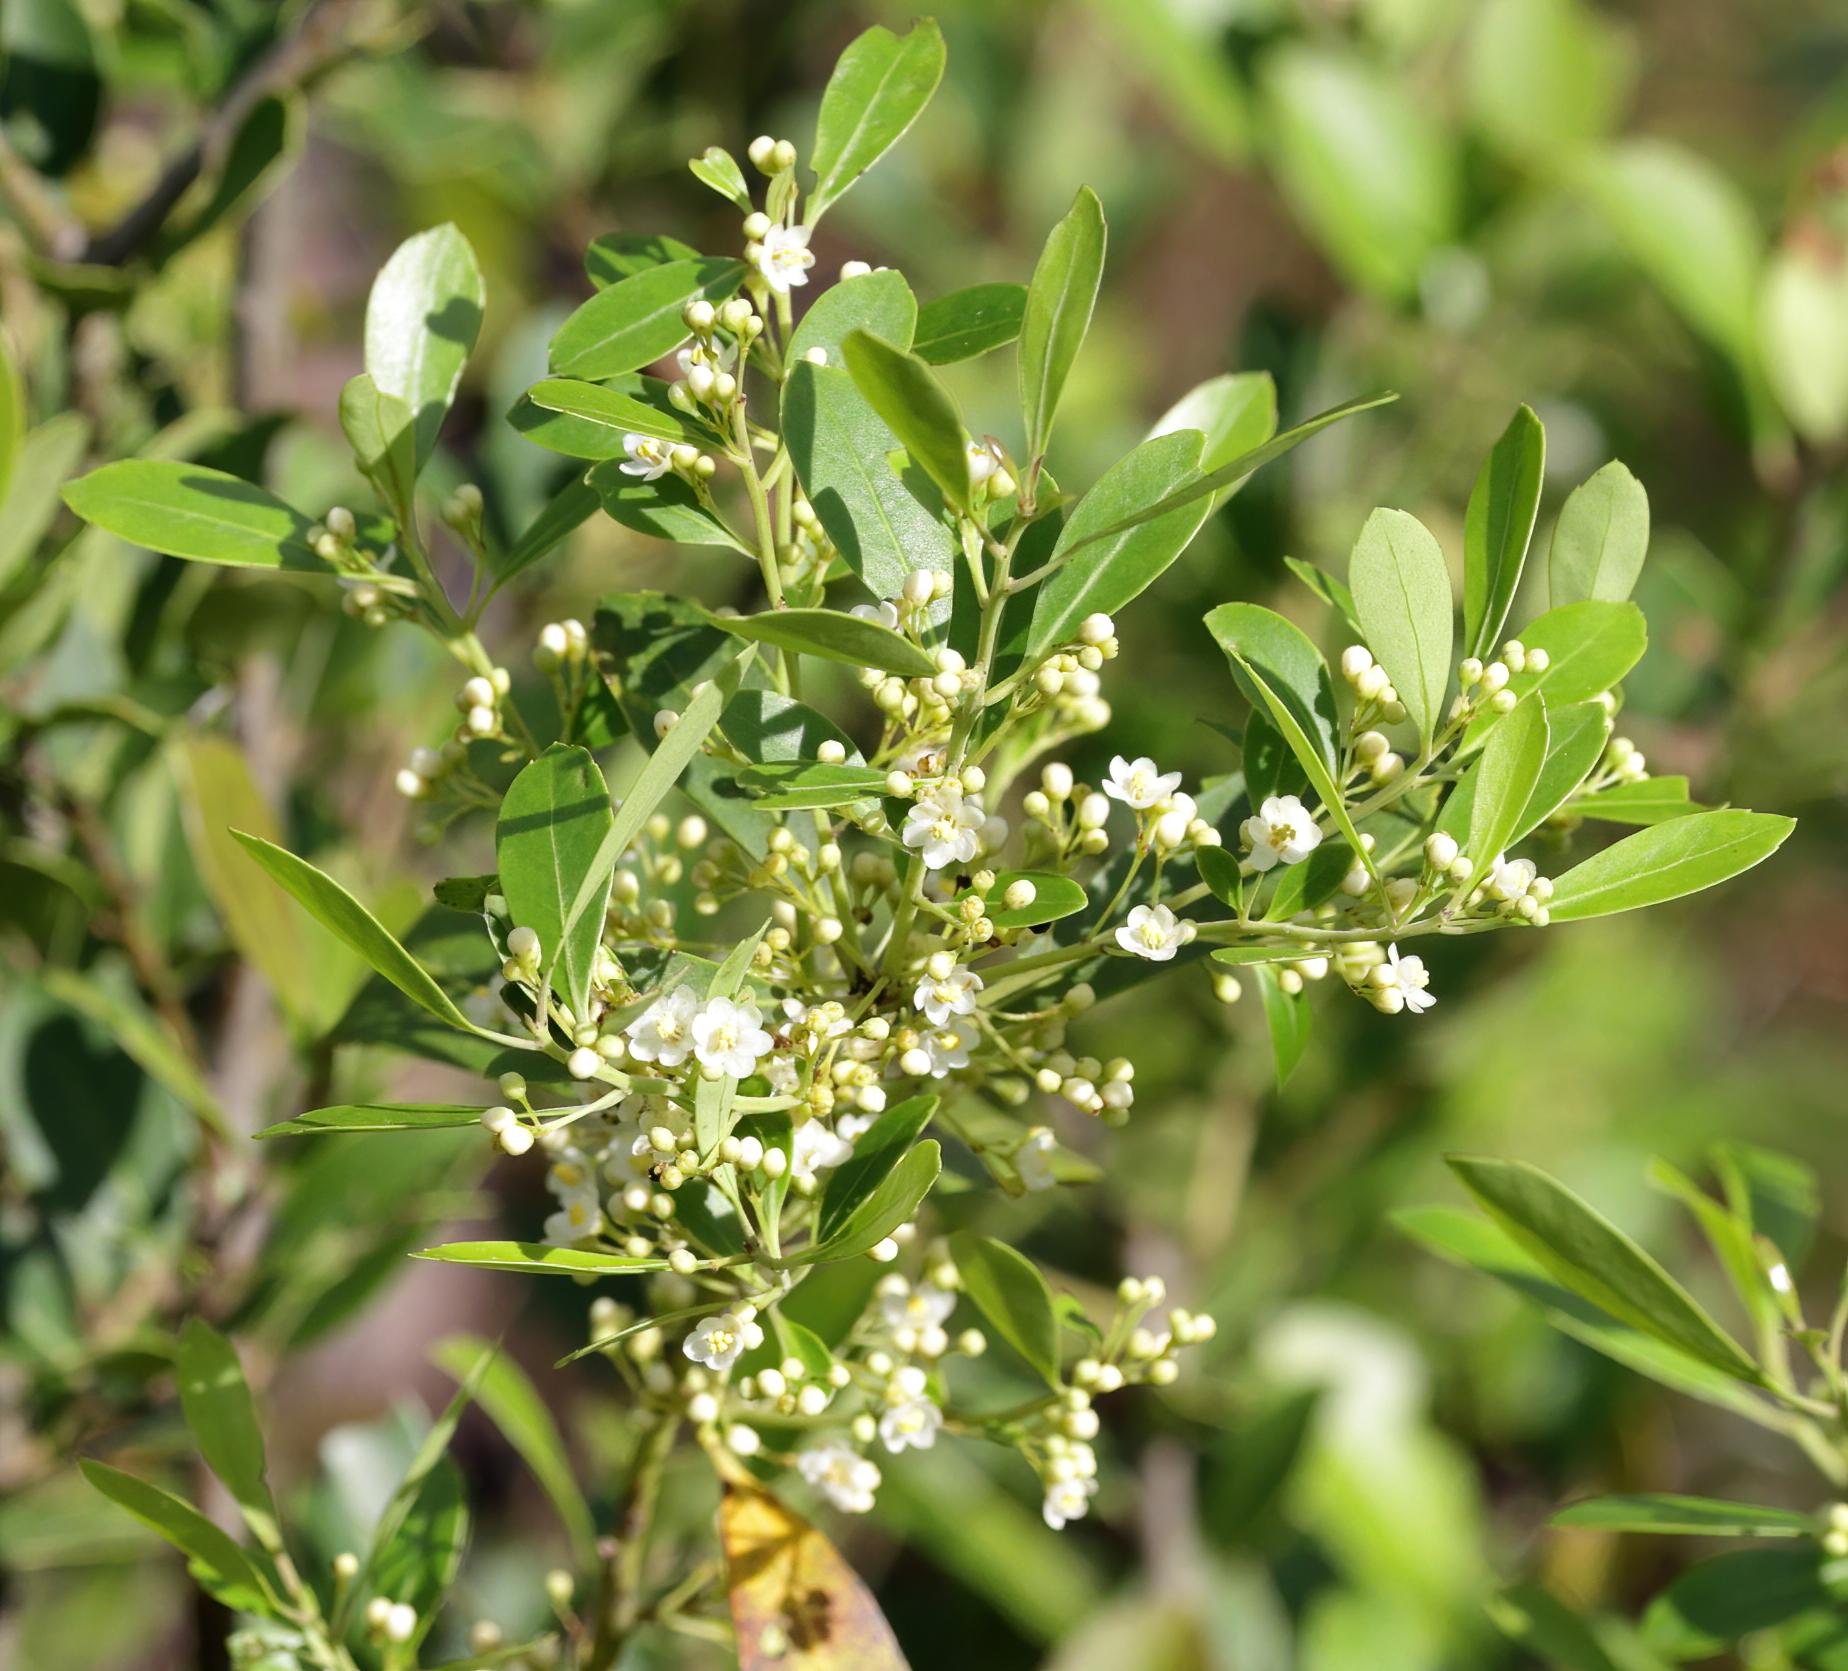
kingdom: Plantae
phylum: Tracheophyta
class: Magnoliopsida
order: Aquifoliales
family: Aquifoliaceae
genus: Ilex
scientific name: Ilex glabra
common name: Bitter gallberry
